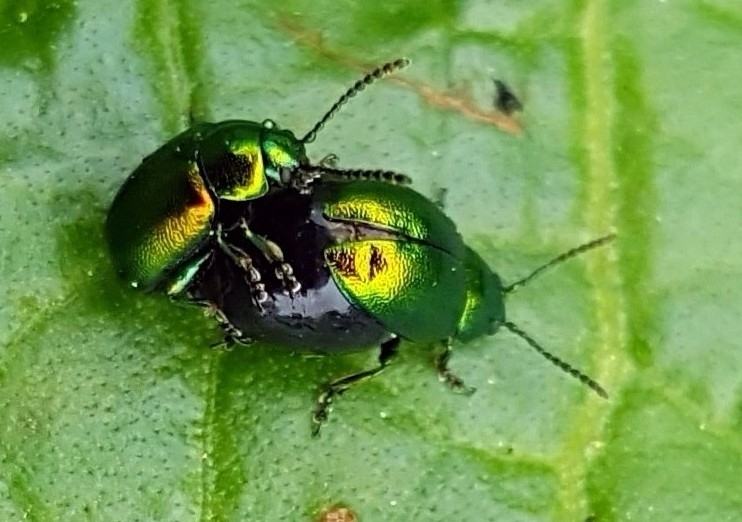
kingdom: Animalia
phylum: Arthropoda
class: Insecta
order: Coleoptera
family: Chrysomelidae
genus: Gastrophysa
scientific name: Gastrophysa viridula
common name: Green dock beetle
